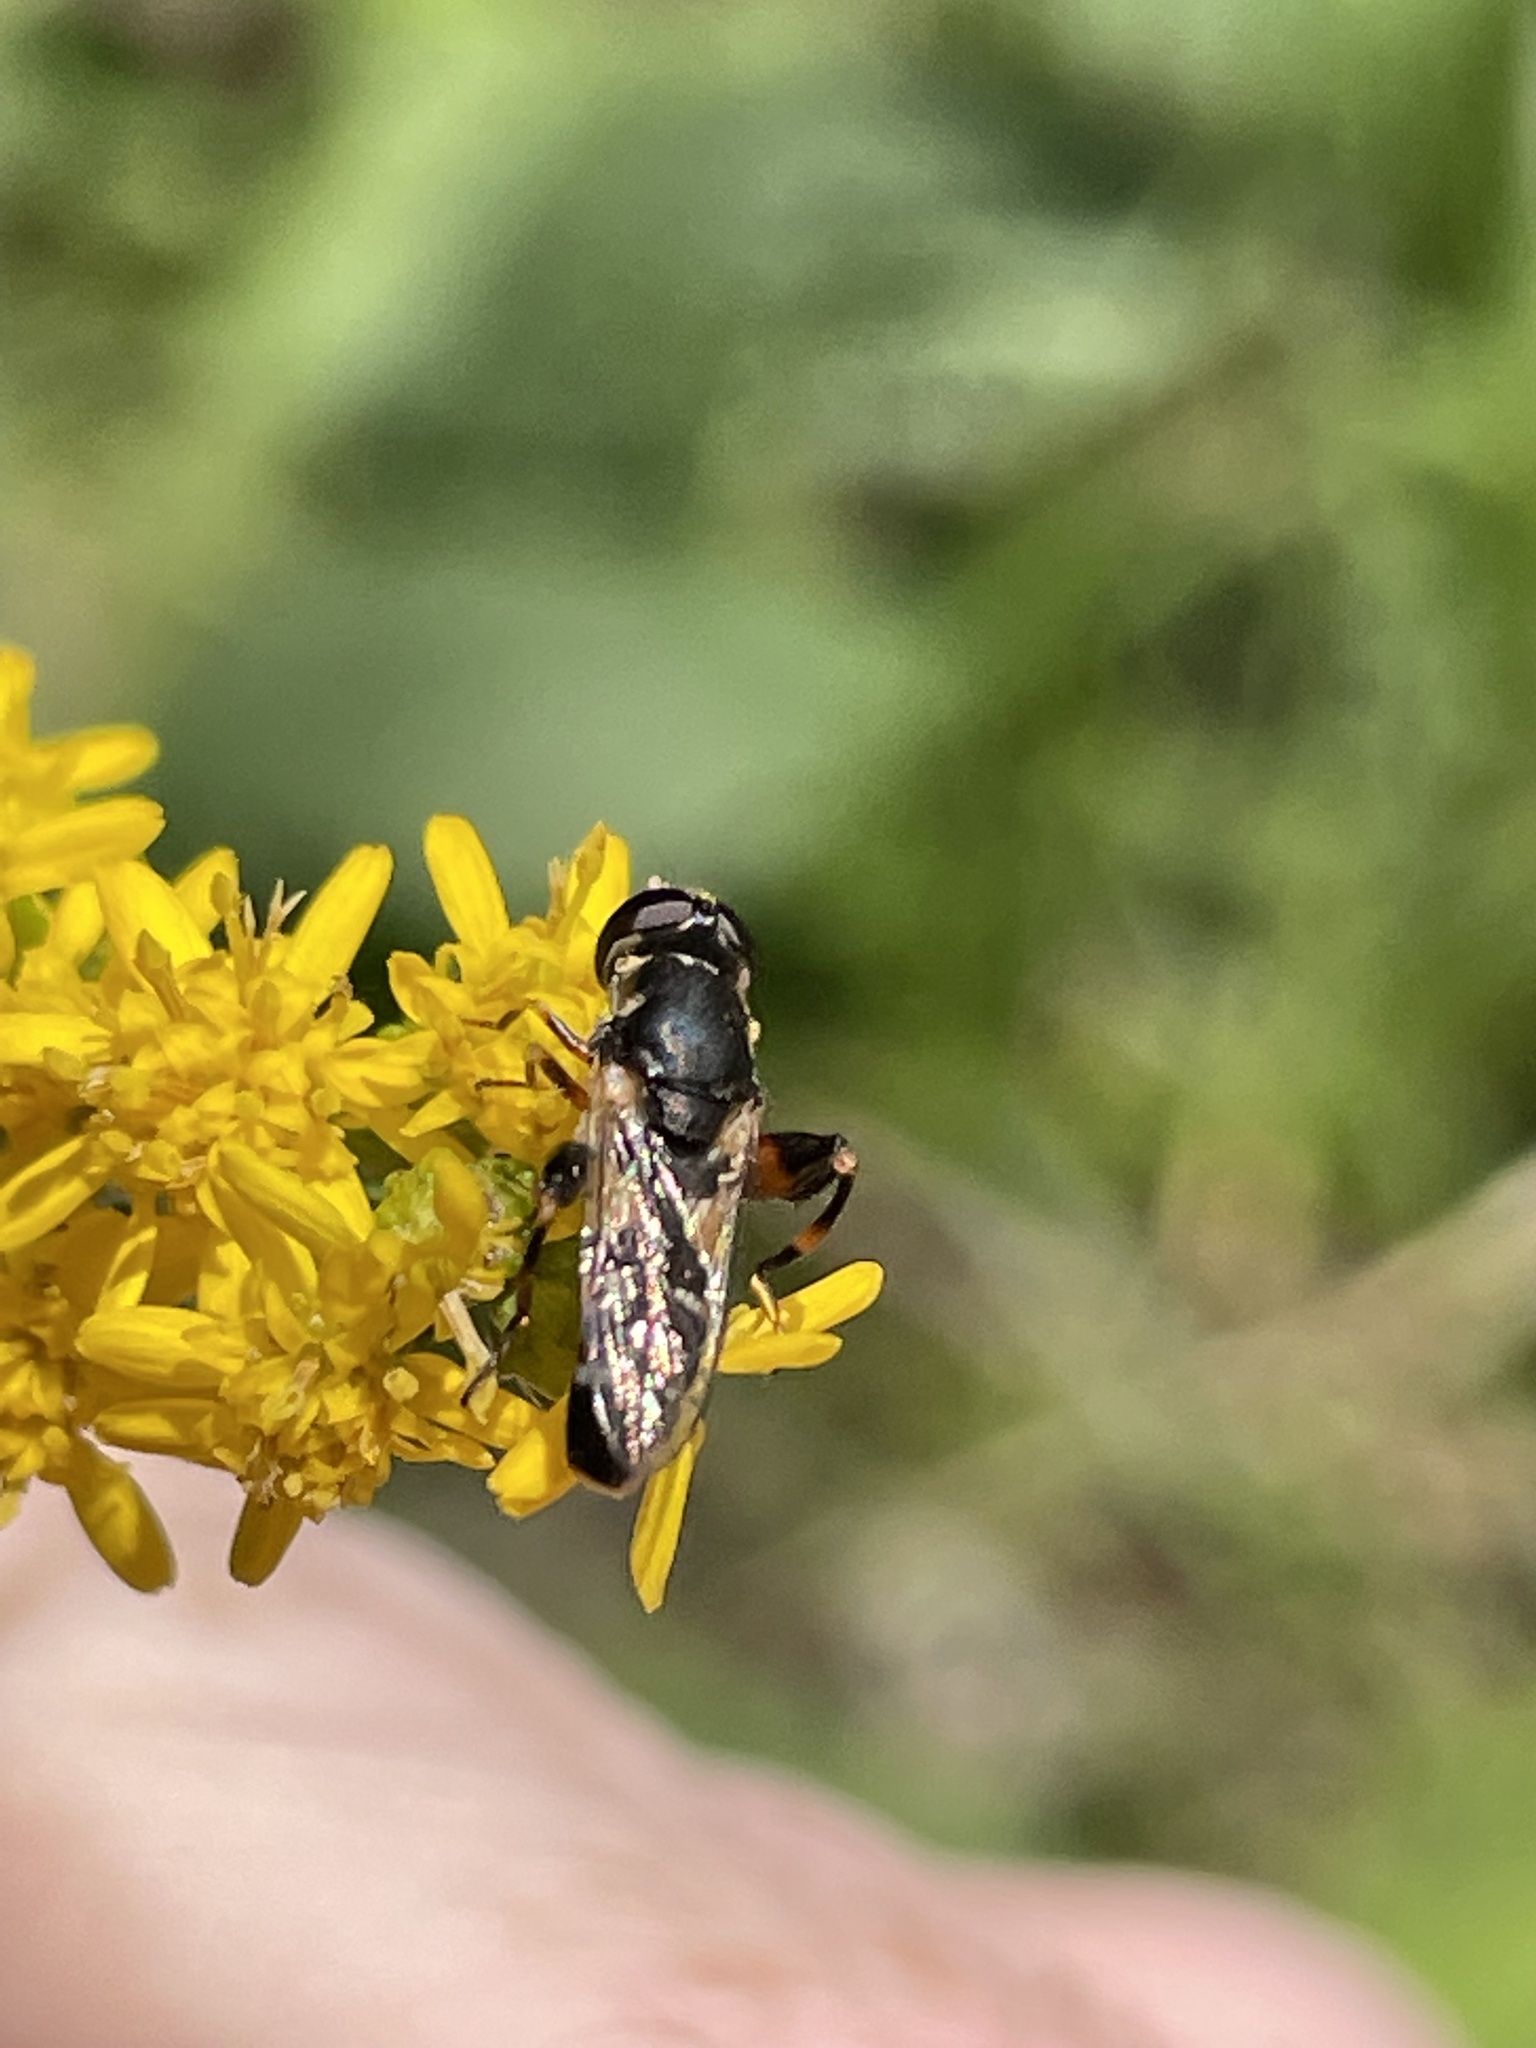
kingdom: Animalia
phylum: Arthropoda
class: Insecta
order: Diptera
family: Syrphidae
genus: Syritta
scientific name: Syritta pipiens
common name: Hover fly
